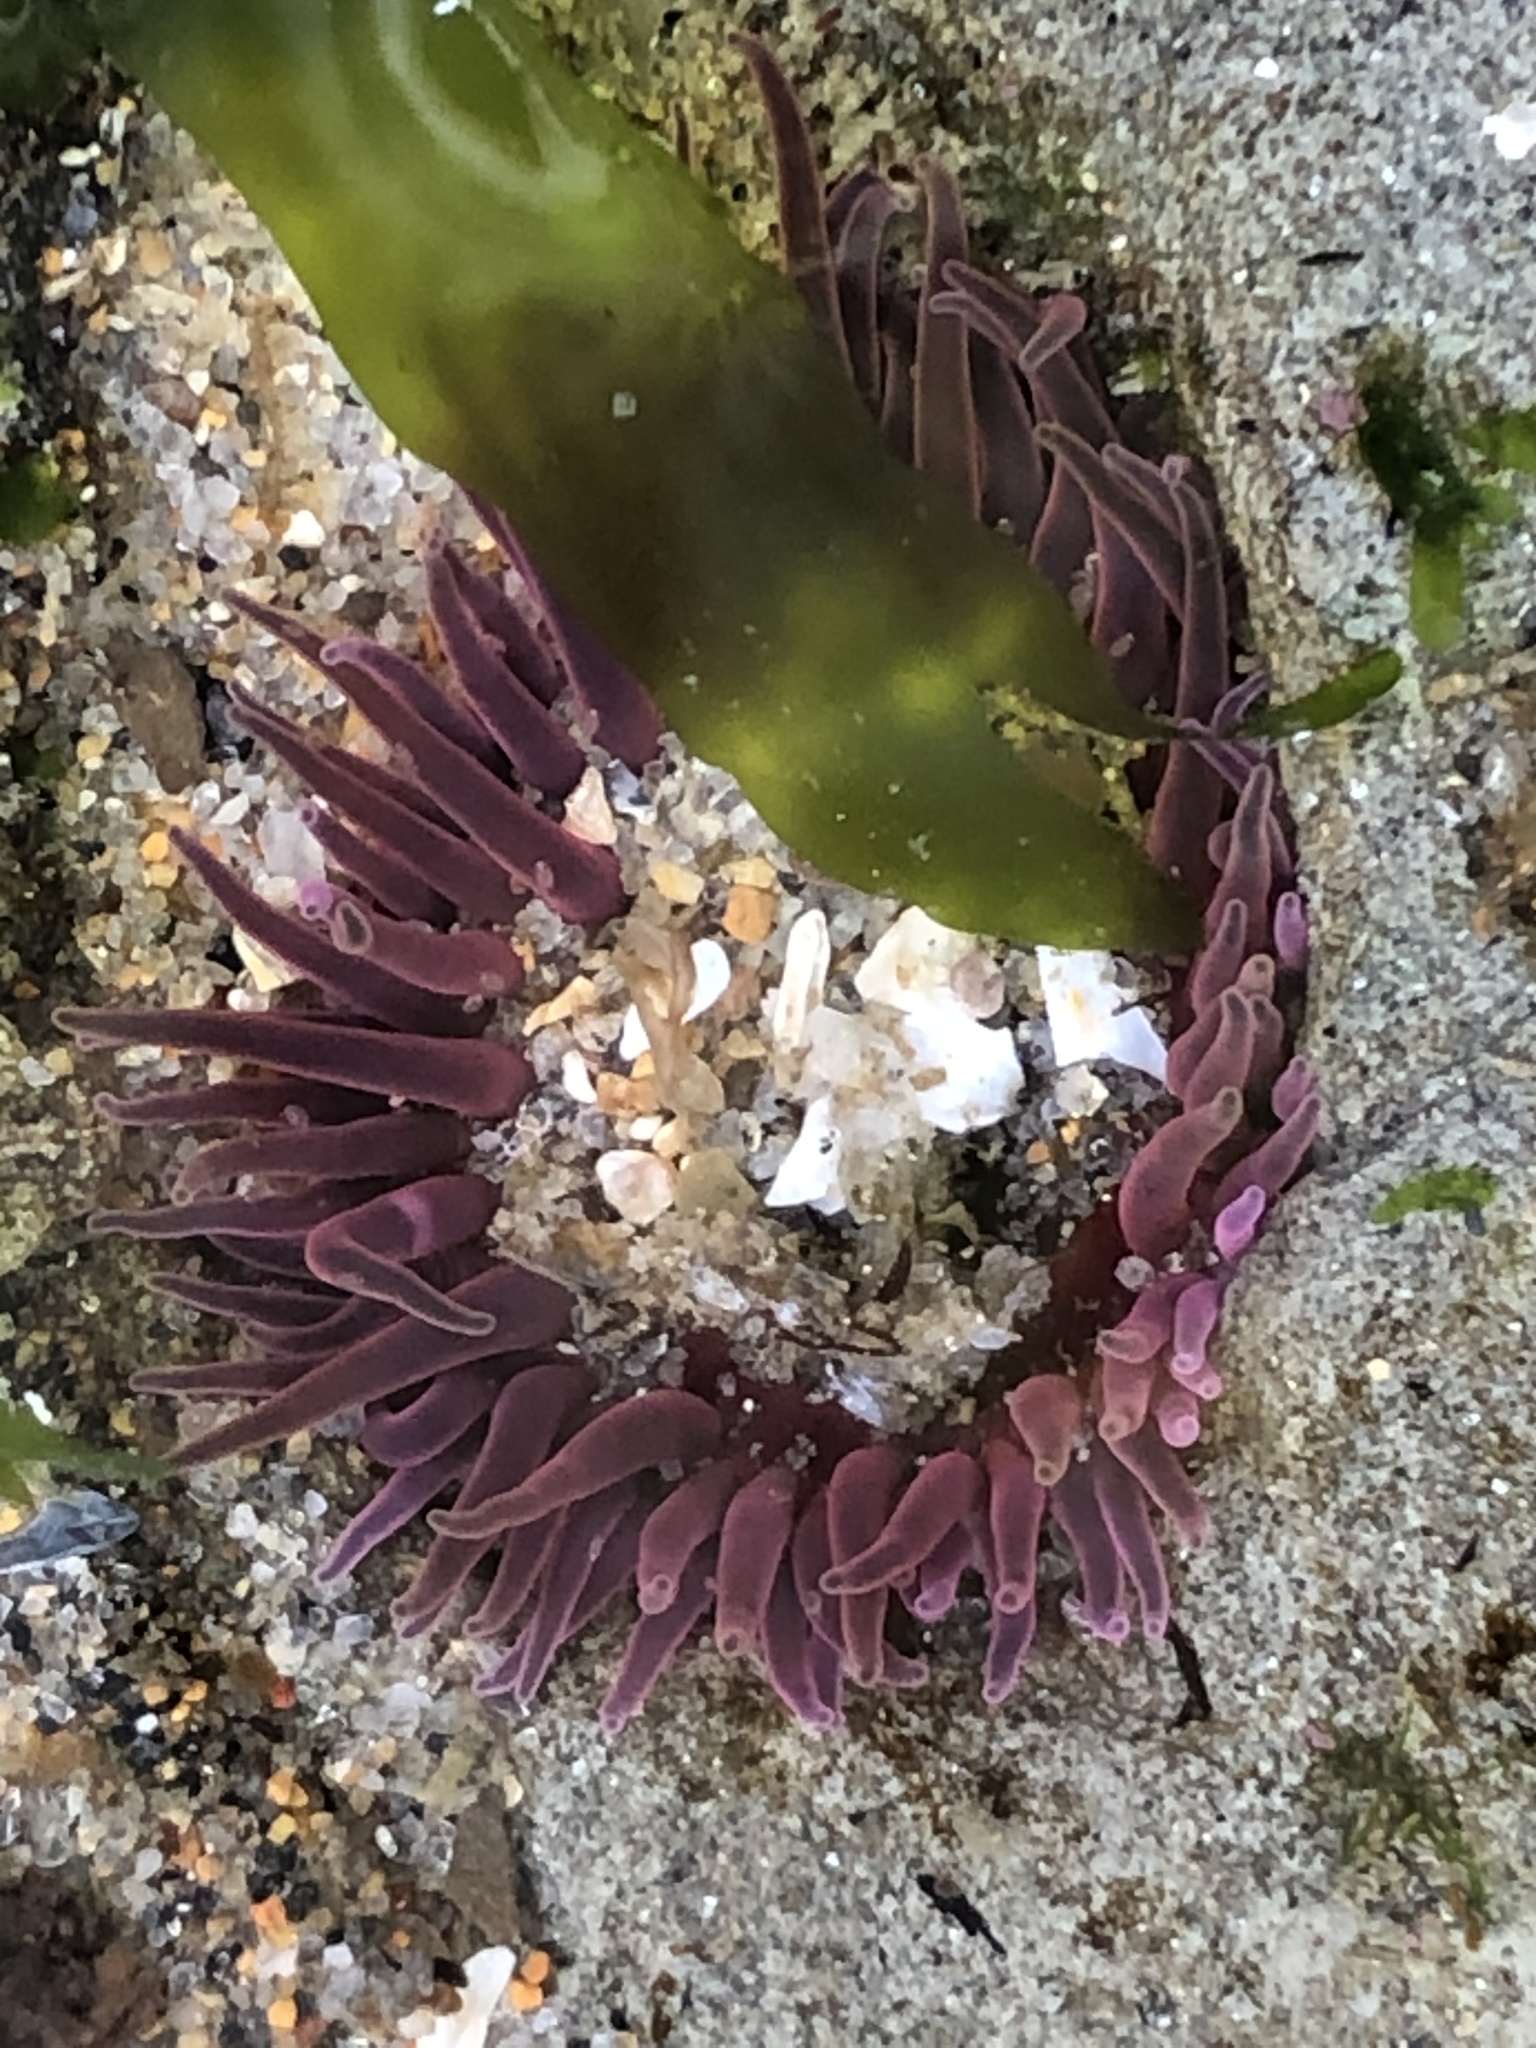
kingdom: Animalia
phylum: Cnidaria
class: Anthozoa
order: Actiniaria
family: Actiniidae
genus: Anthopleura
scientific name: Anthopleura artemisia
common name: Buried sea anemone
